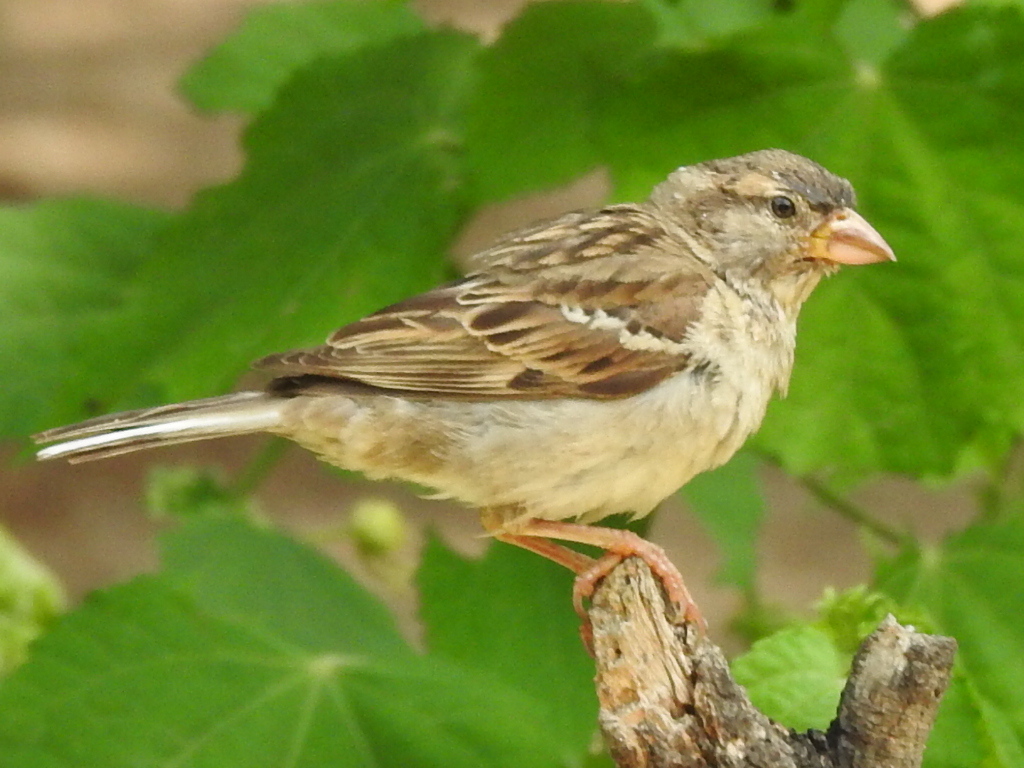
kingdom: Animalia
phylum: Chordata
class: Aves
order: Passeriformes
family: Passeridae
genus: Passer
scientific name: Passer domesticus
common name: House sparrow
